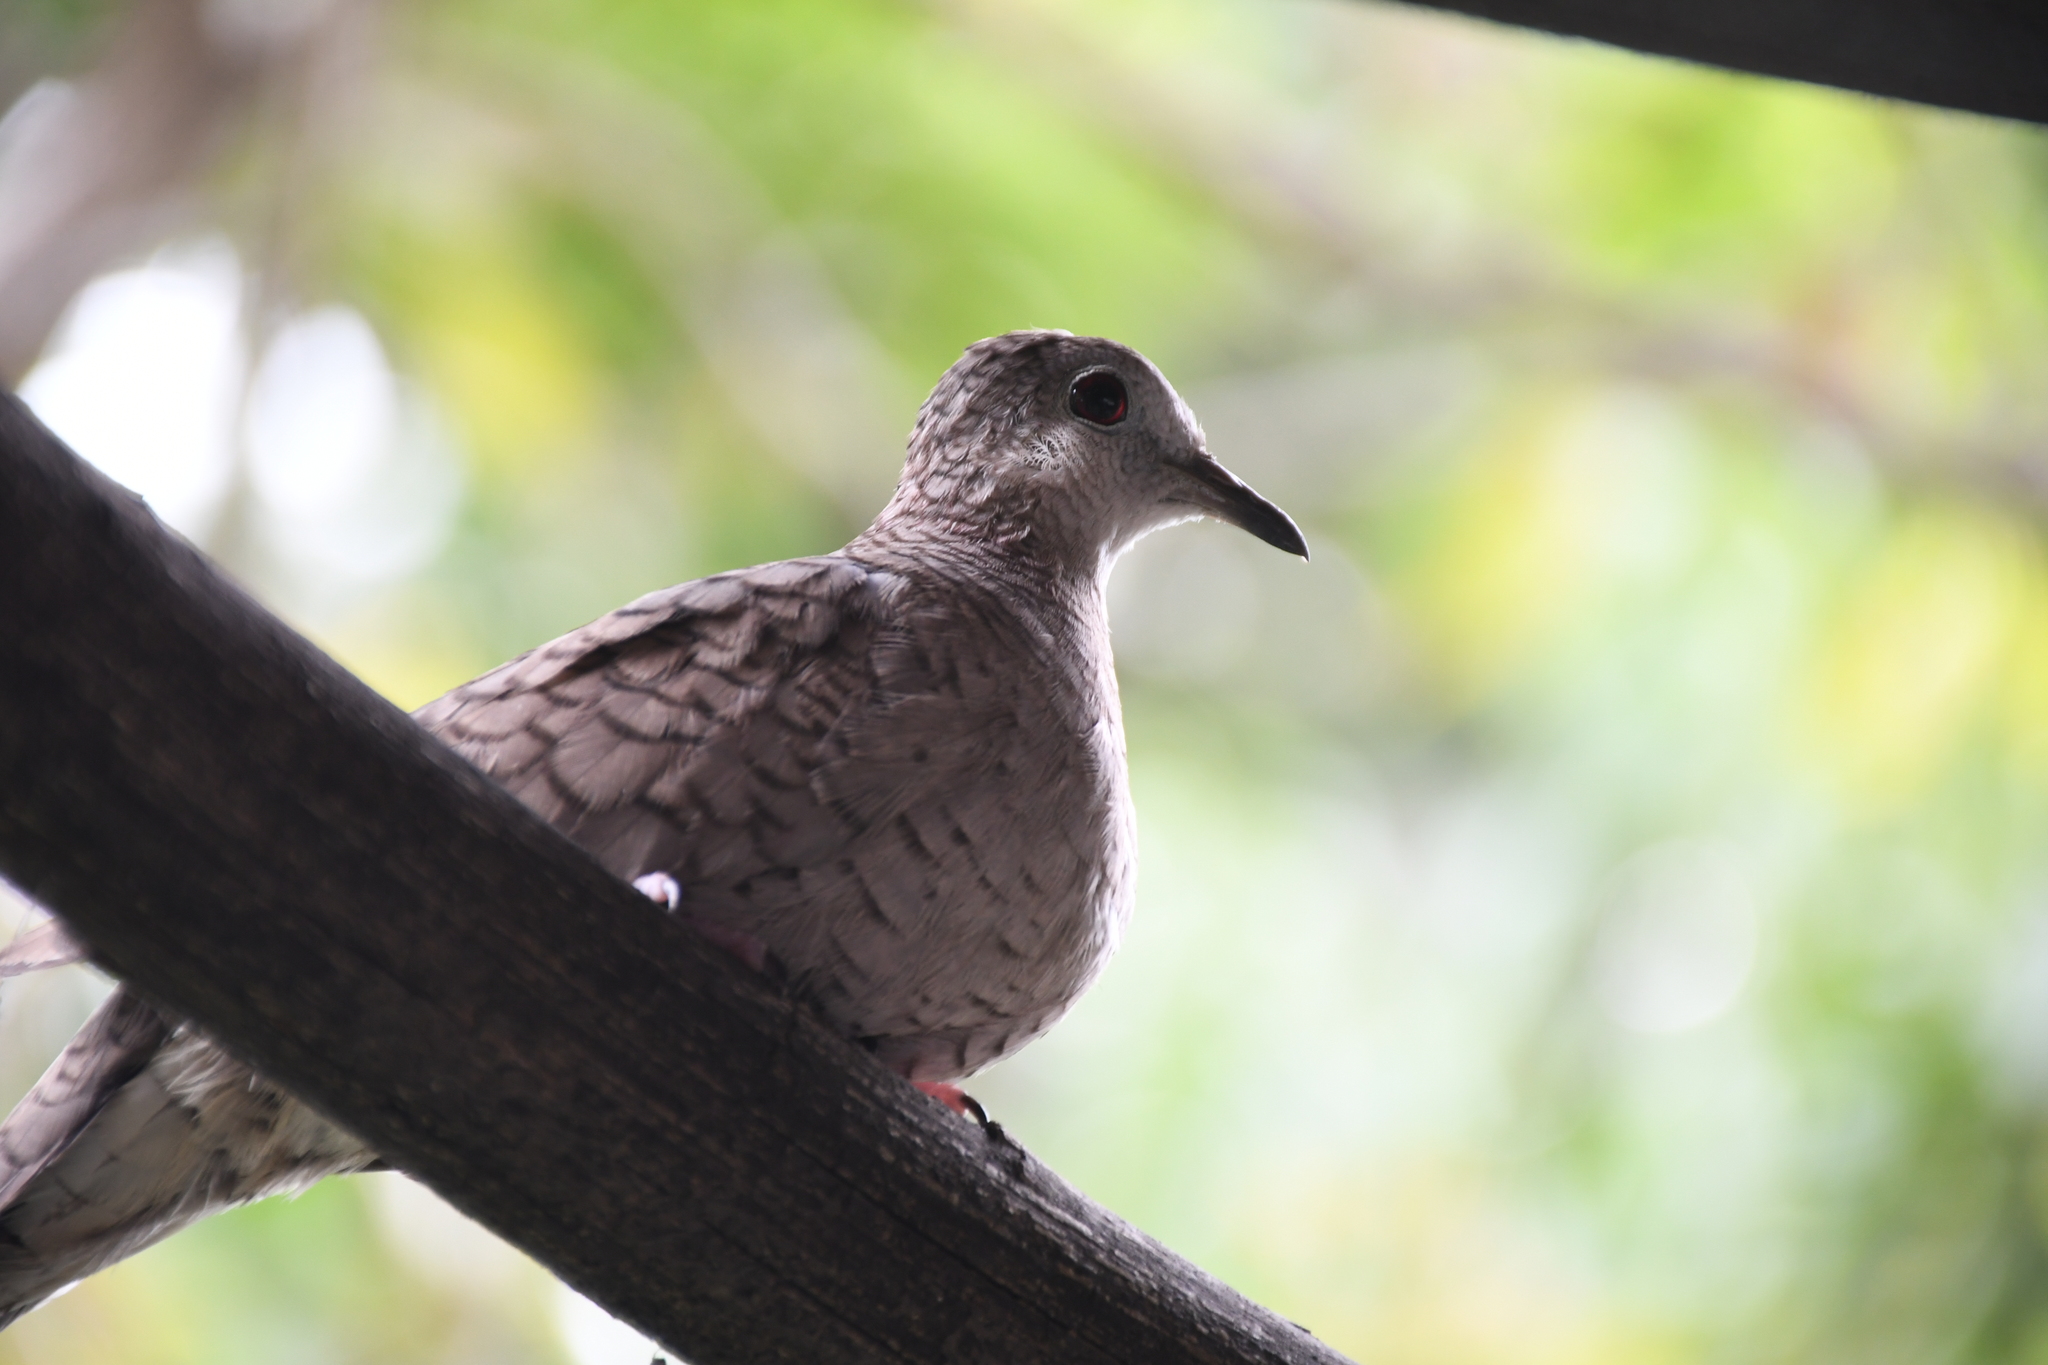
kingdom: Animalia
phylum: Chordata
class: Aves
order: Columbiformes
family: Columbidae
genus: Columbina
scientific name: Columbina inca
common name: Inca dove
